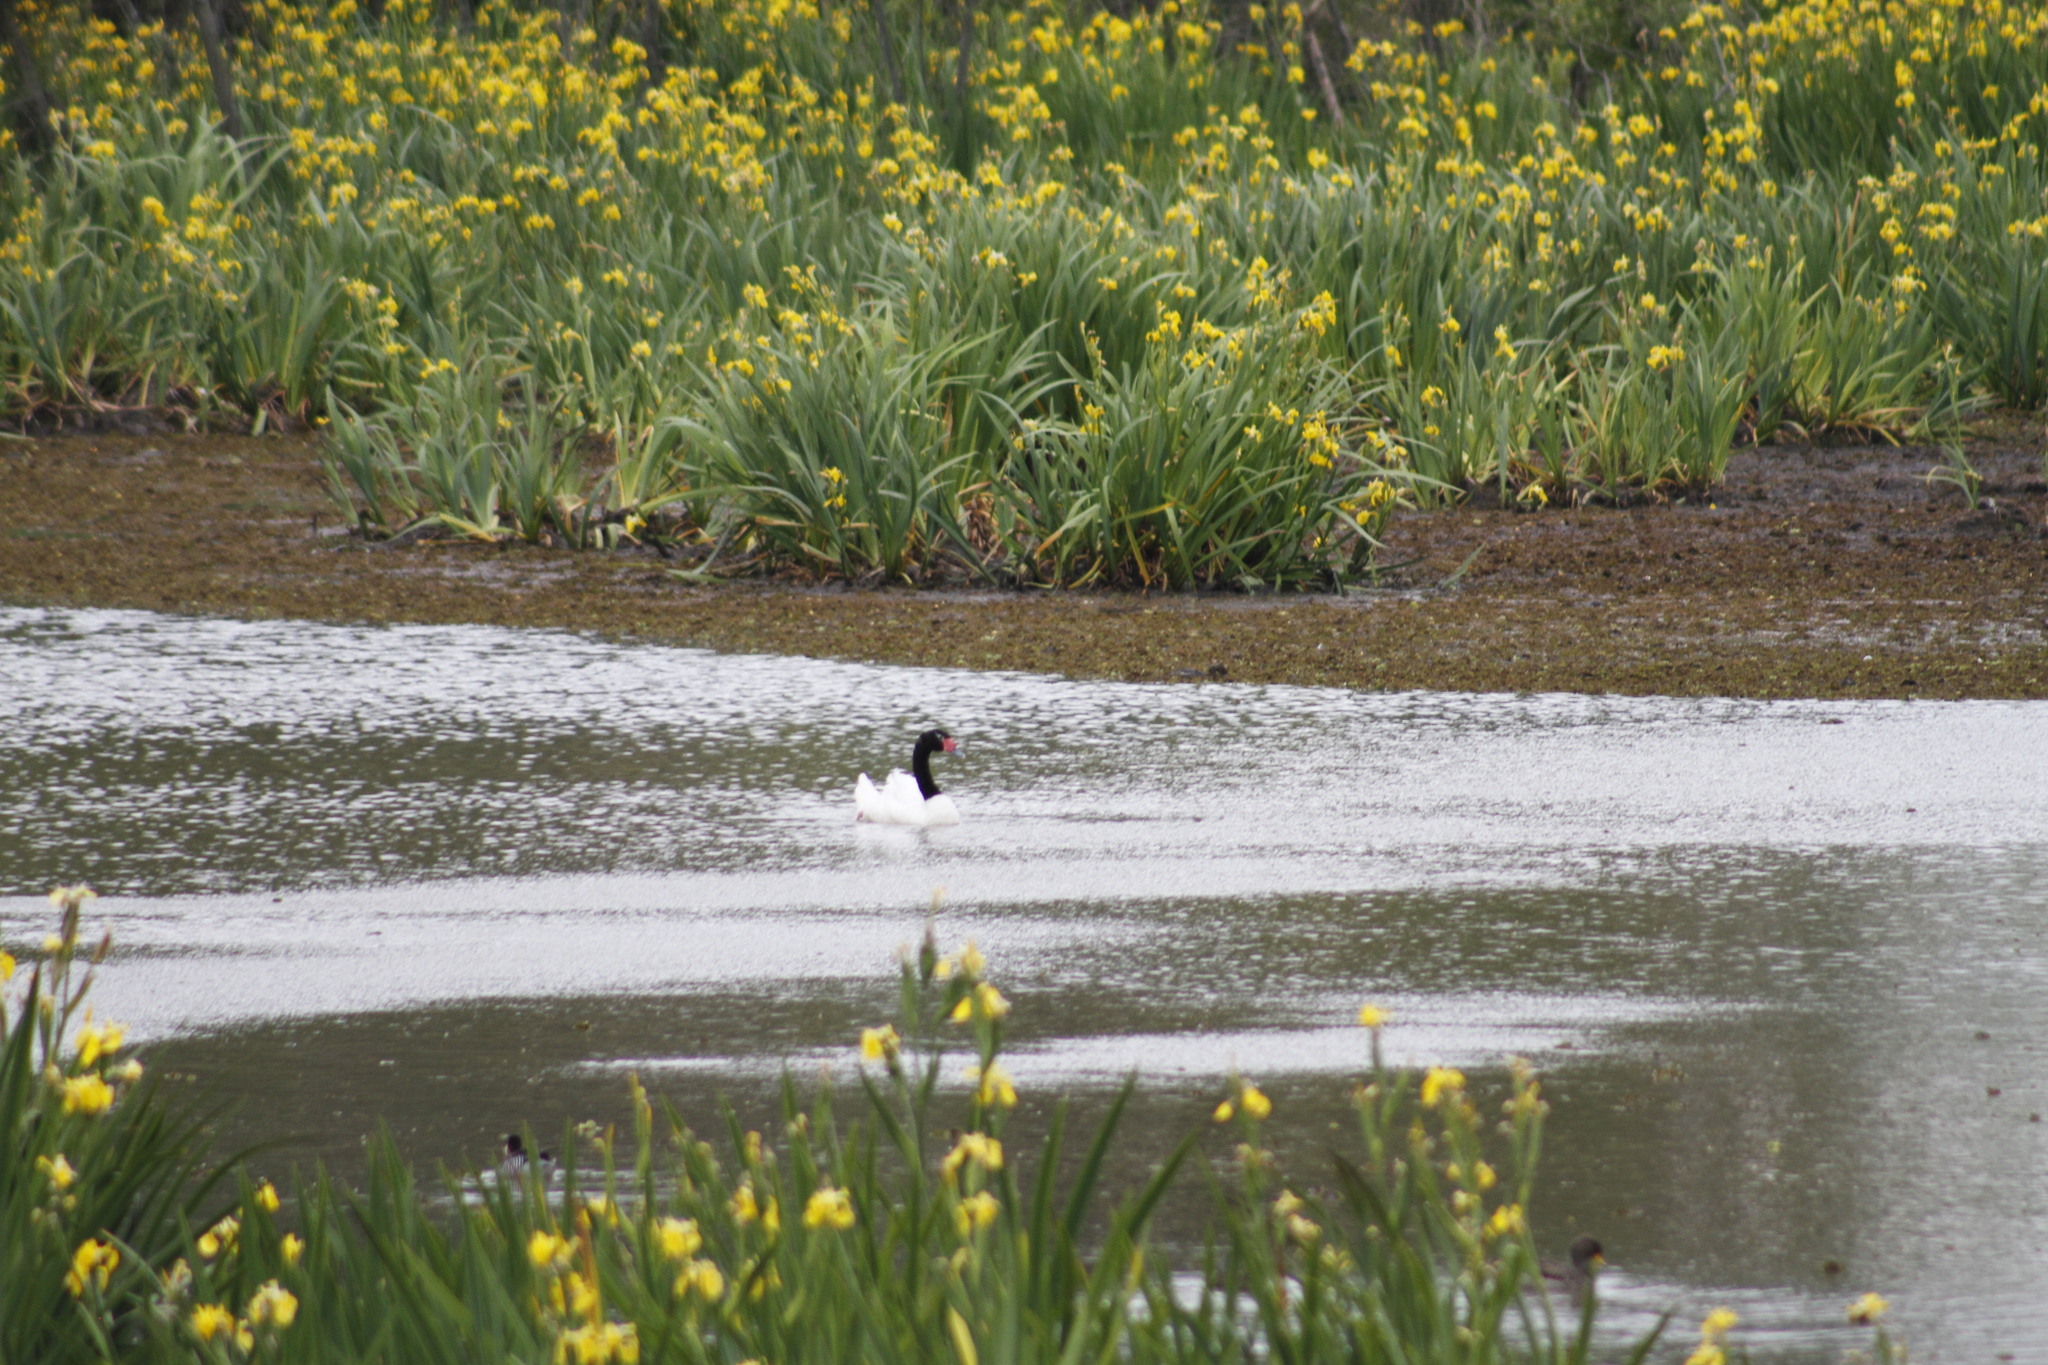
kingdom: Animalia
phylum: Chordata
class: Aves
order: Anseriformes
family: Anatidae
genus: Cygnus
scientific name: Cygnus melancoryphus
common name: Black-necked swan
